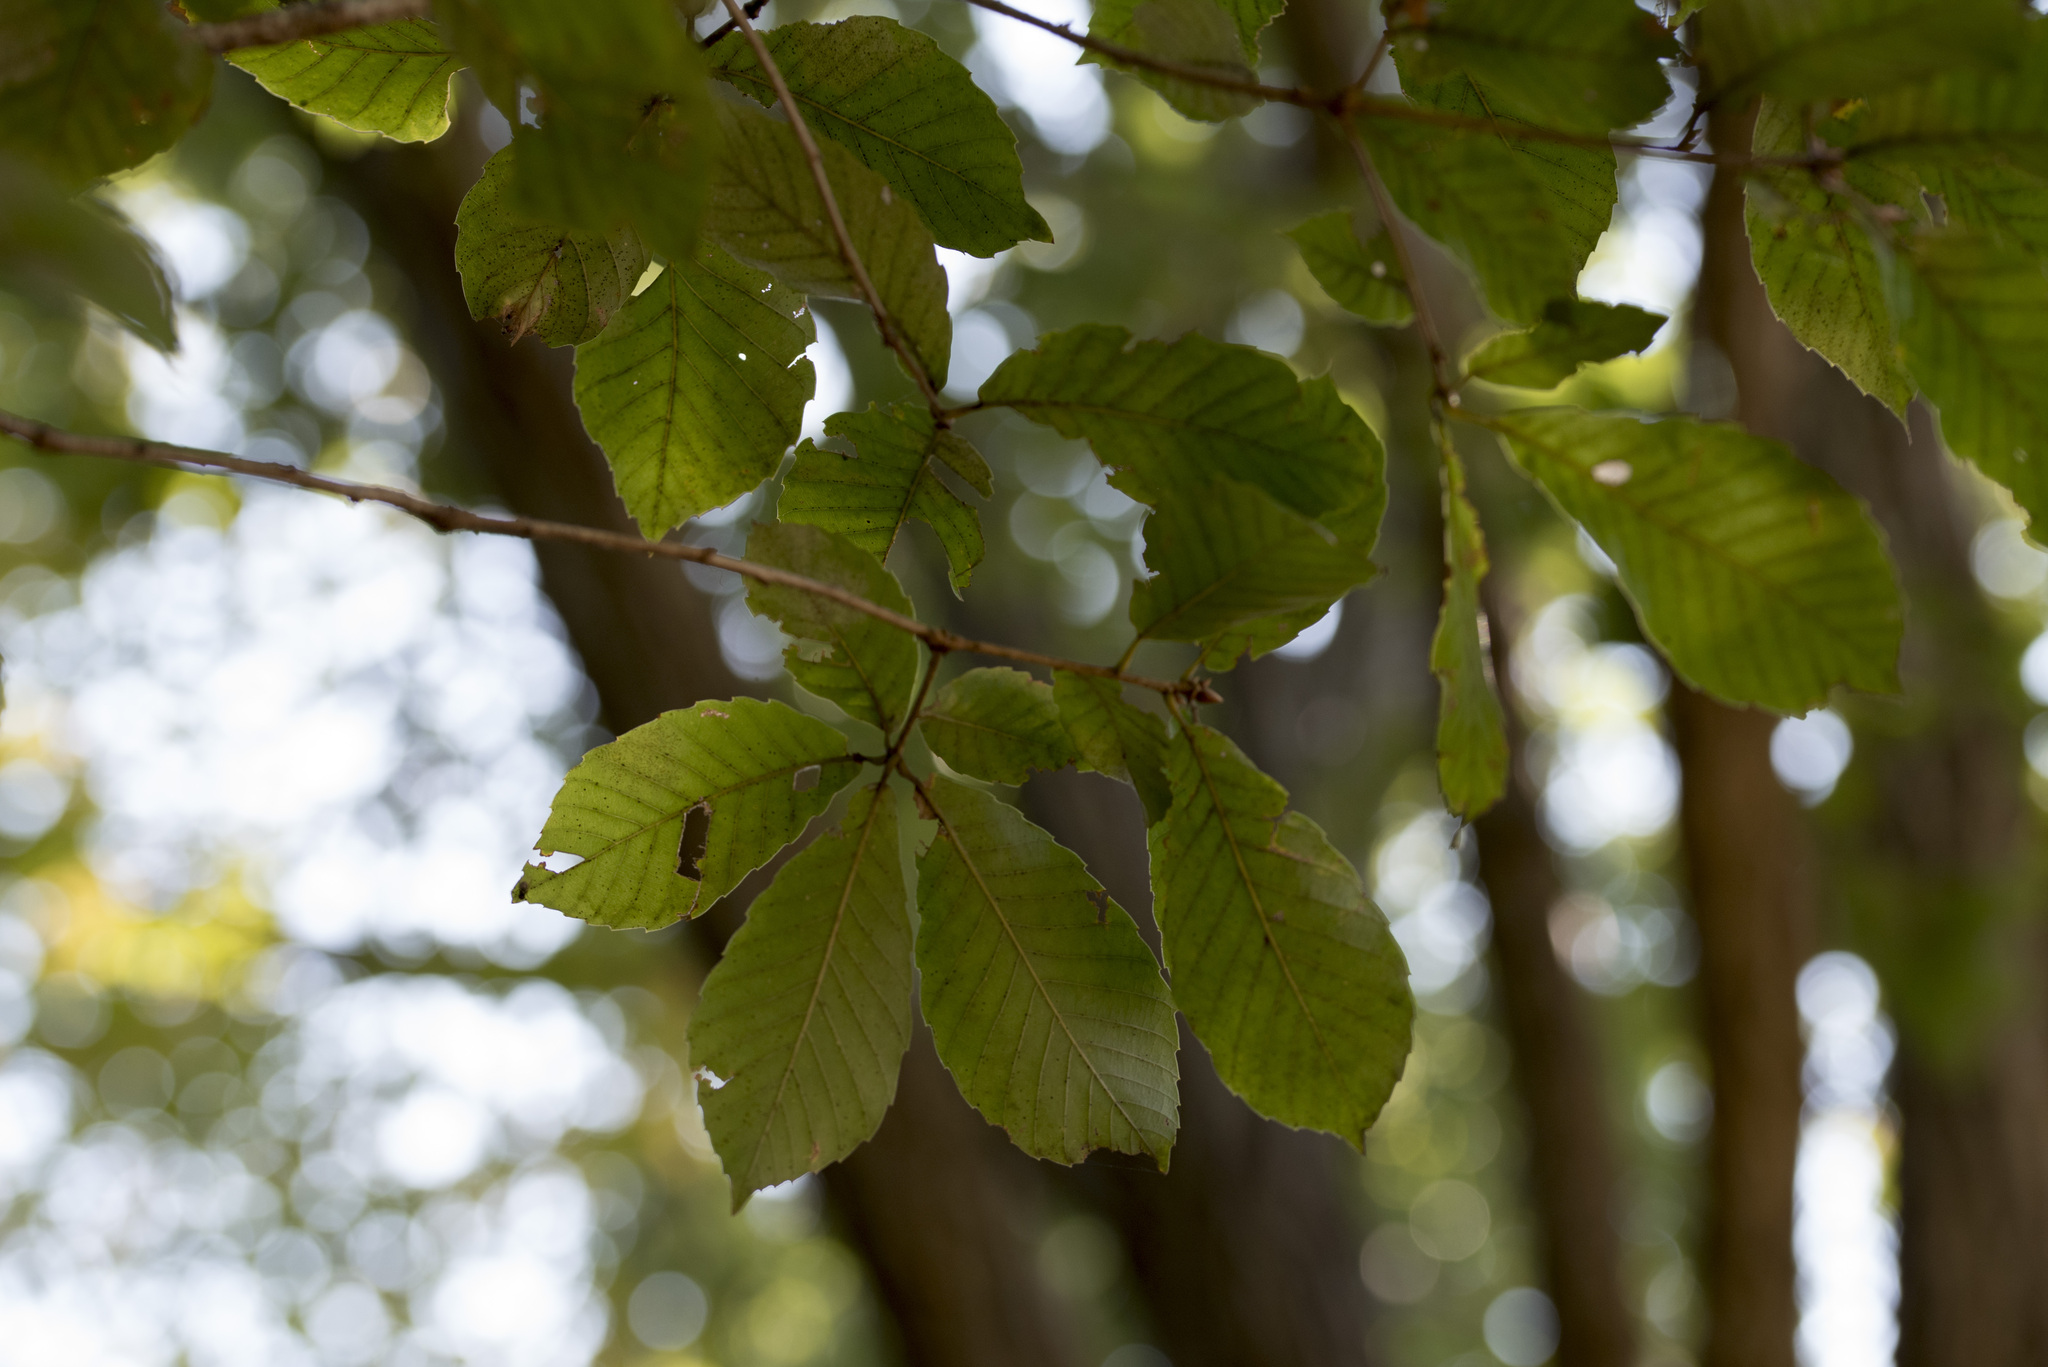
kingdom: Plantae
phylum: Tracheophyta
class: Magnoliopsida
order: Fagales
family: Fagaceae
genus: Quercus
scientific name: Quercus serrata
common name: Bao li
